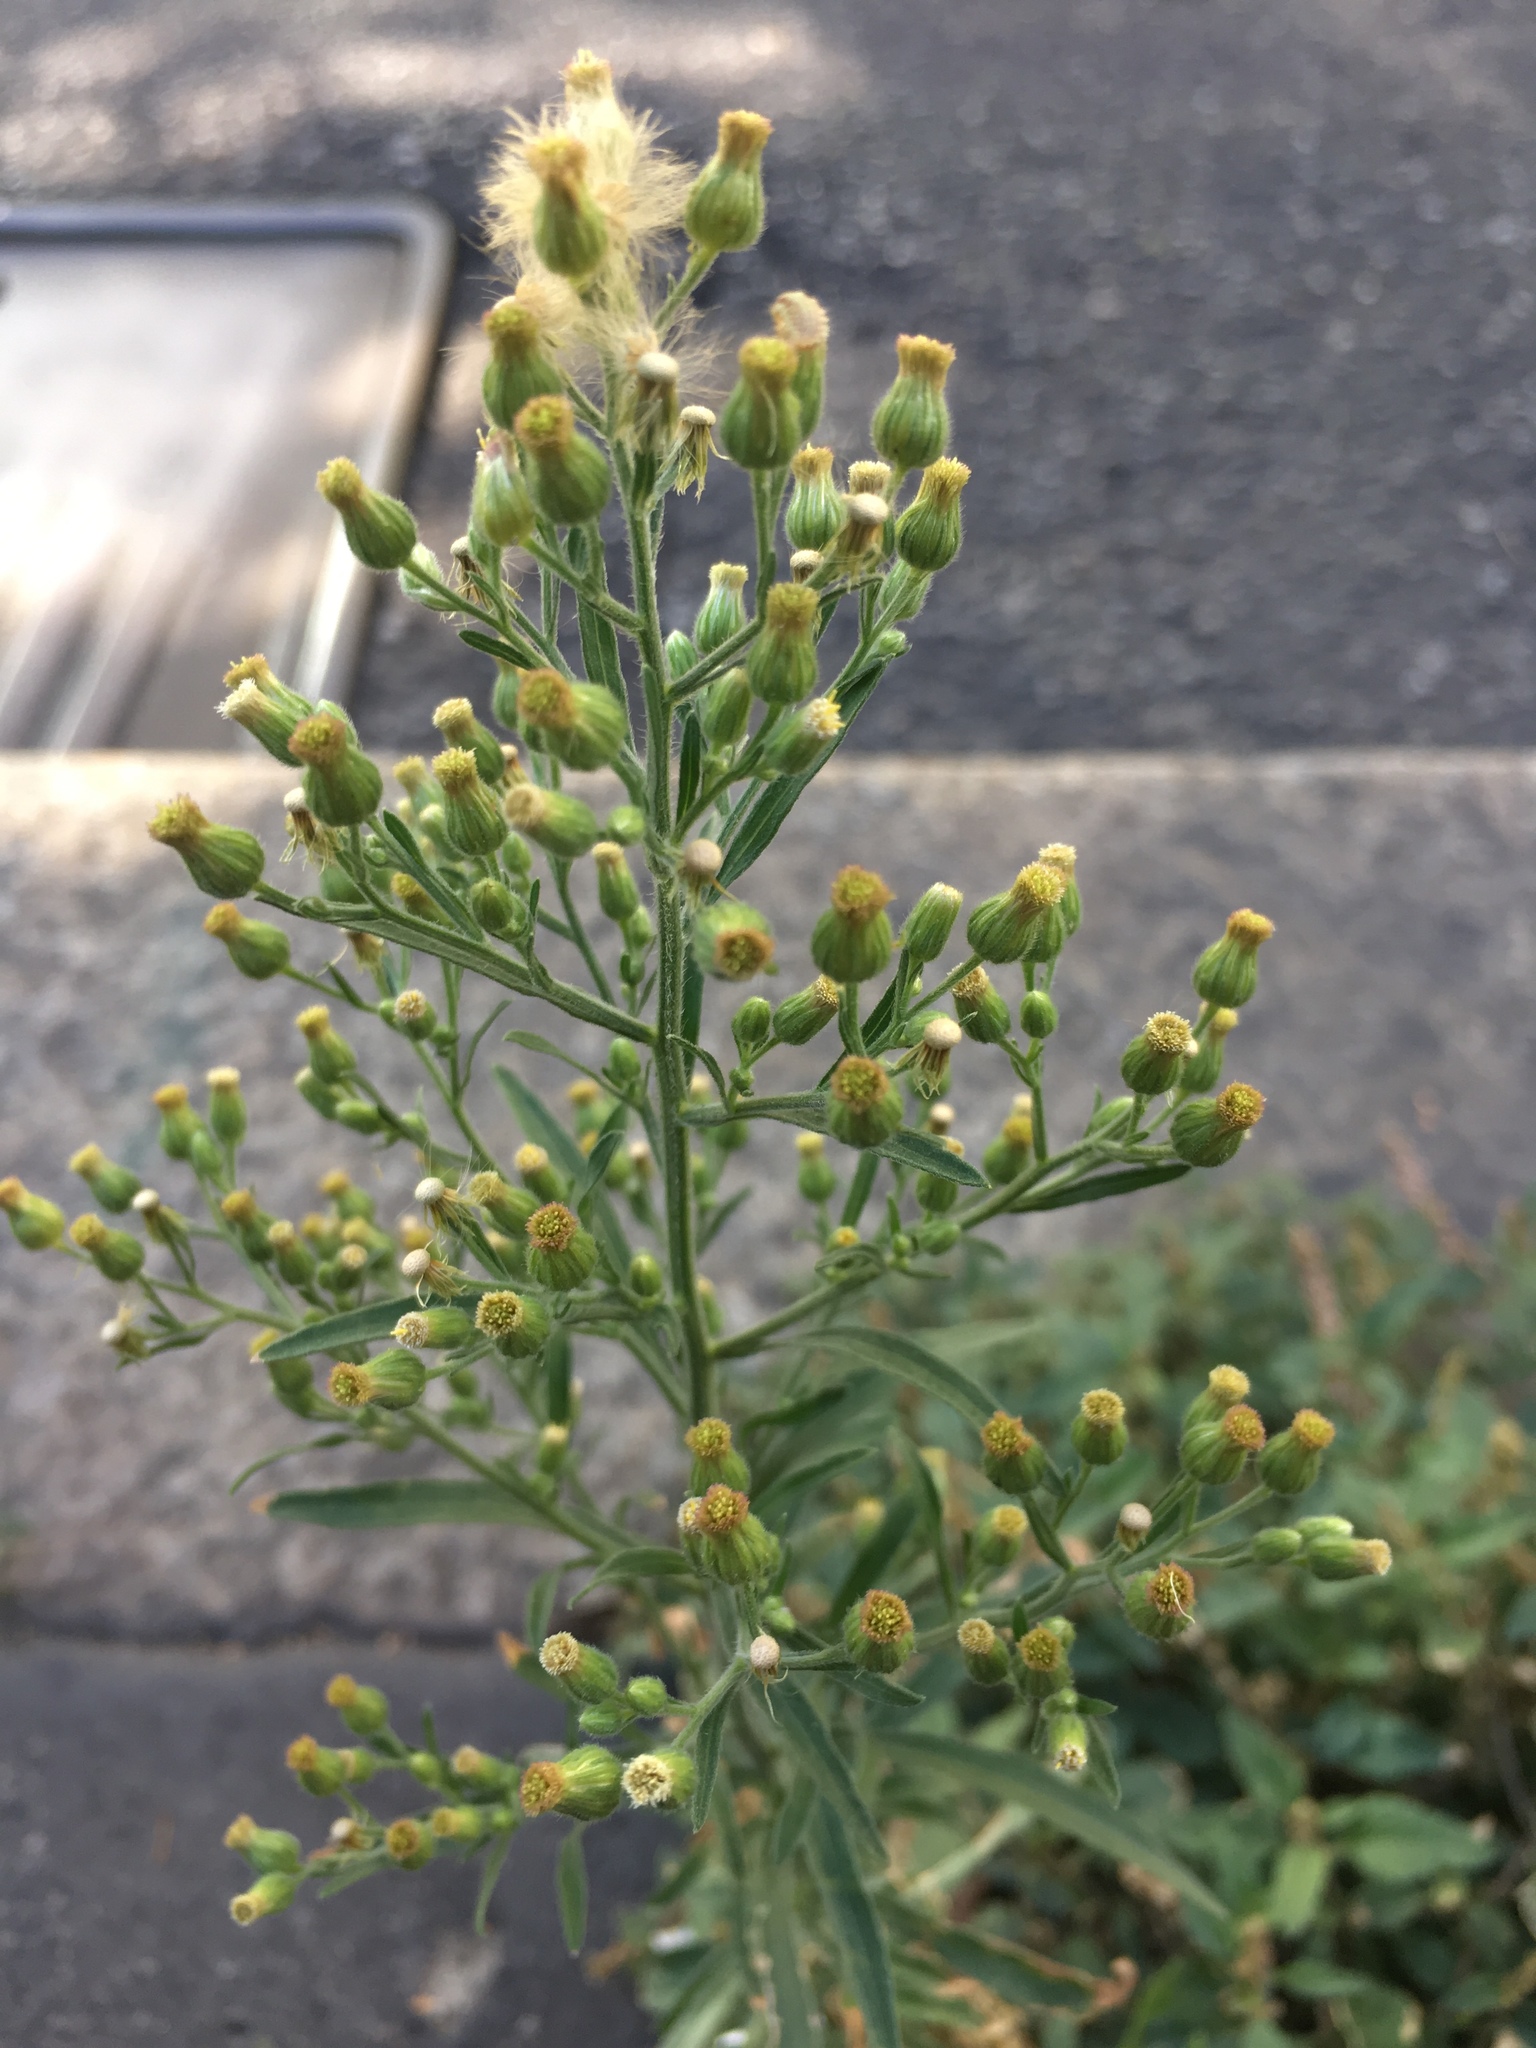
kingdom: Plantae
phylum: Tracheophyta
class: Magnoliopsida
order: Asterales
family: Asteraceae
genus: Erigeron
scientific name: Erigeron sumatrensis
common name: Daisy
